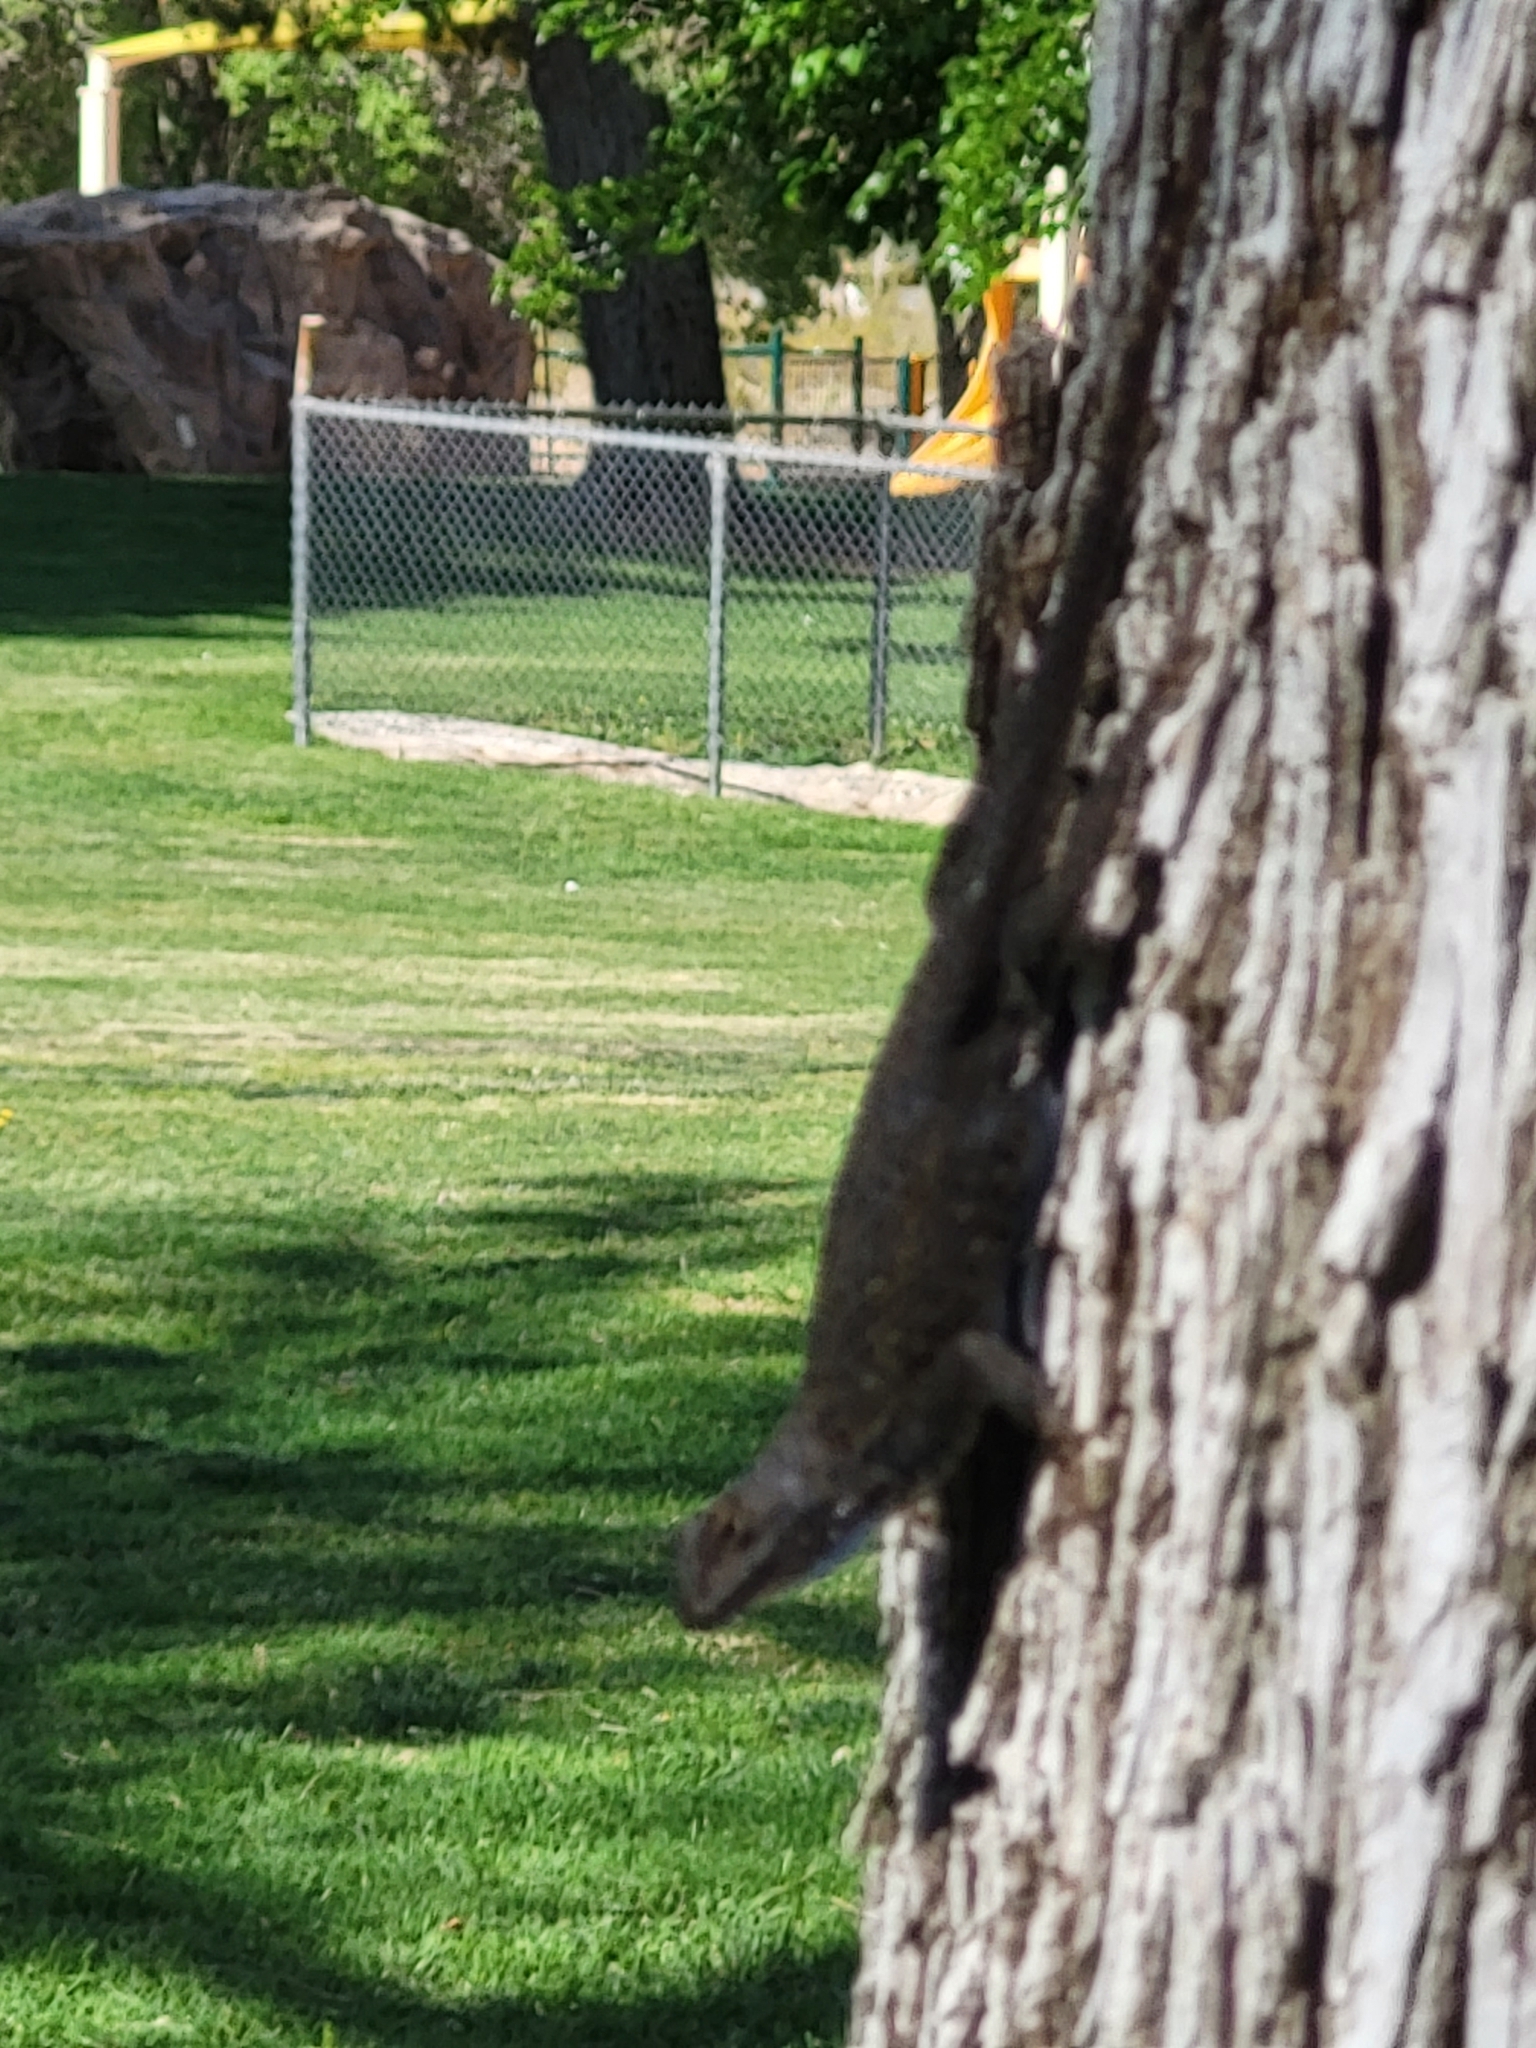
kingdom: Animalia
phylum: Chordata
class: Squamata
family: Phrynosomatidae
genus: Sceloporus
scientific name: Sceloporus occidentalis
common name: Western fence lizard
